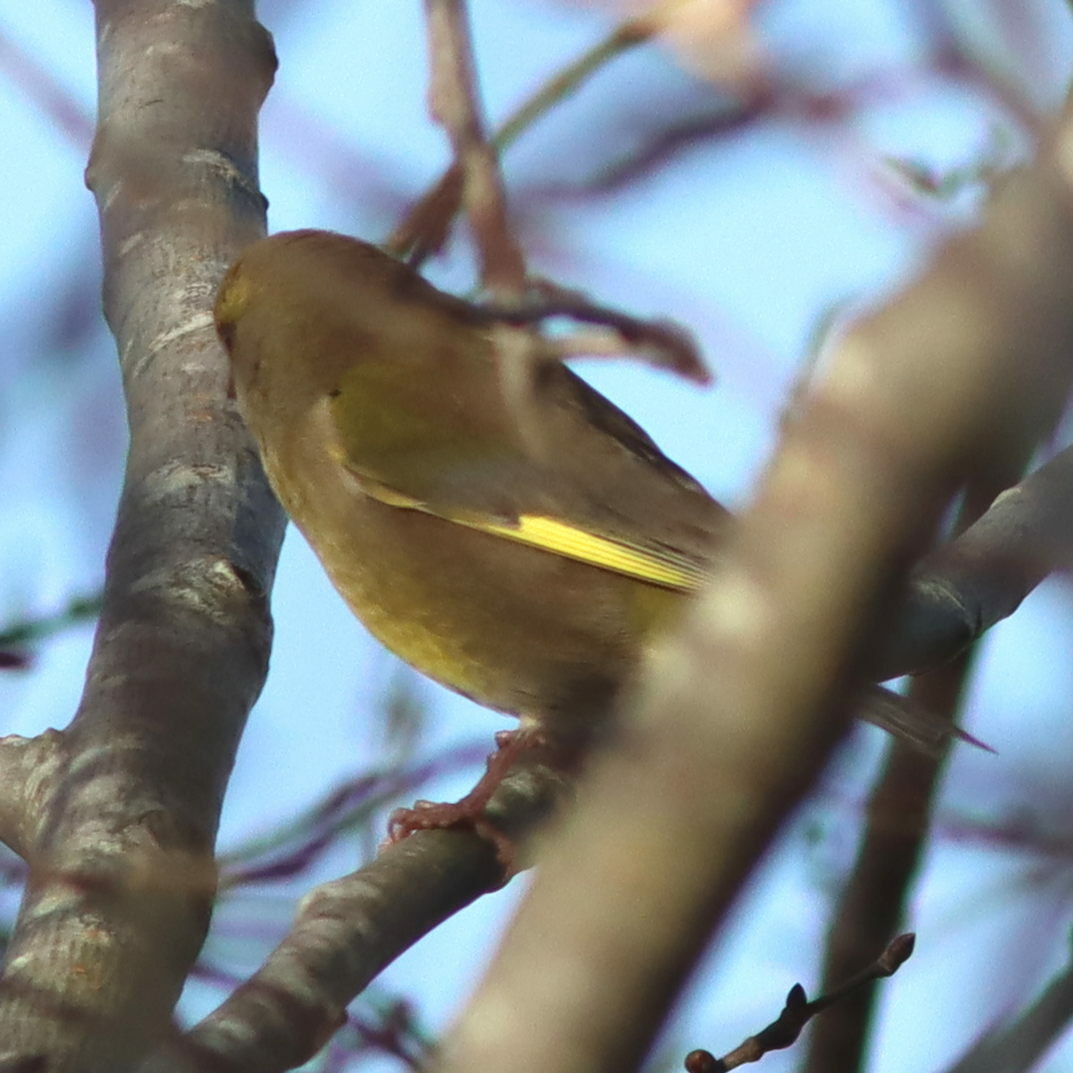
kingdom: Plantae
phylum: Tracheophyta
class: Liliopsida
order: Poales
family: Poaceae
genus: Chloris
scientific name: Chloris chloris
